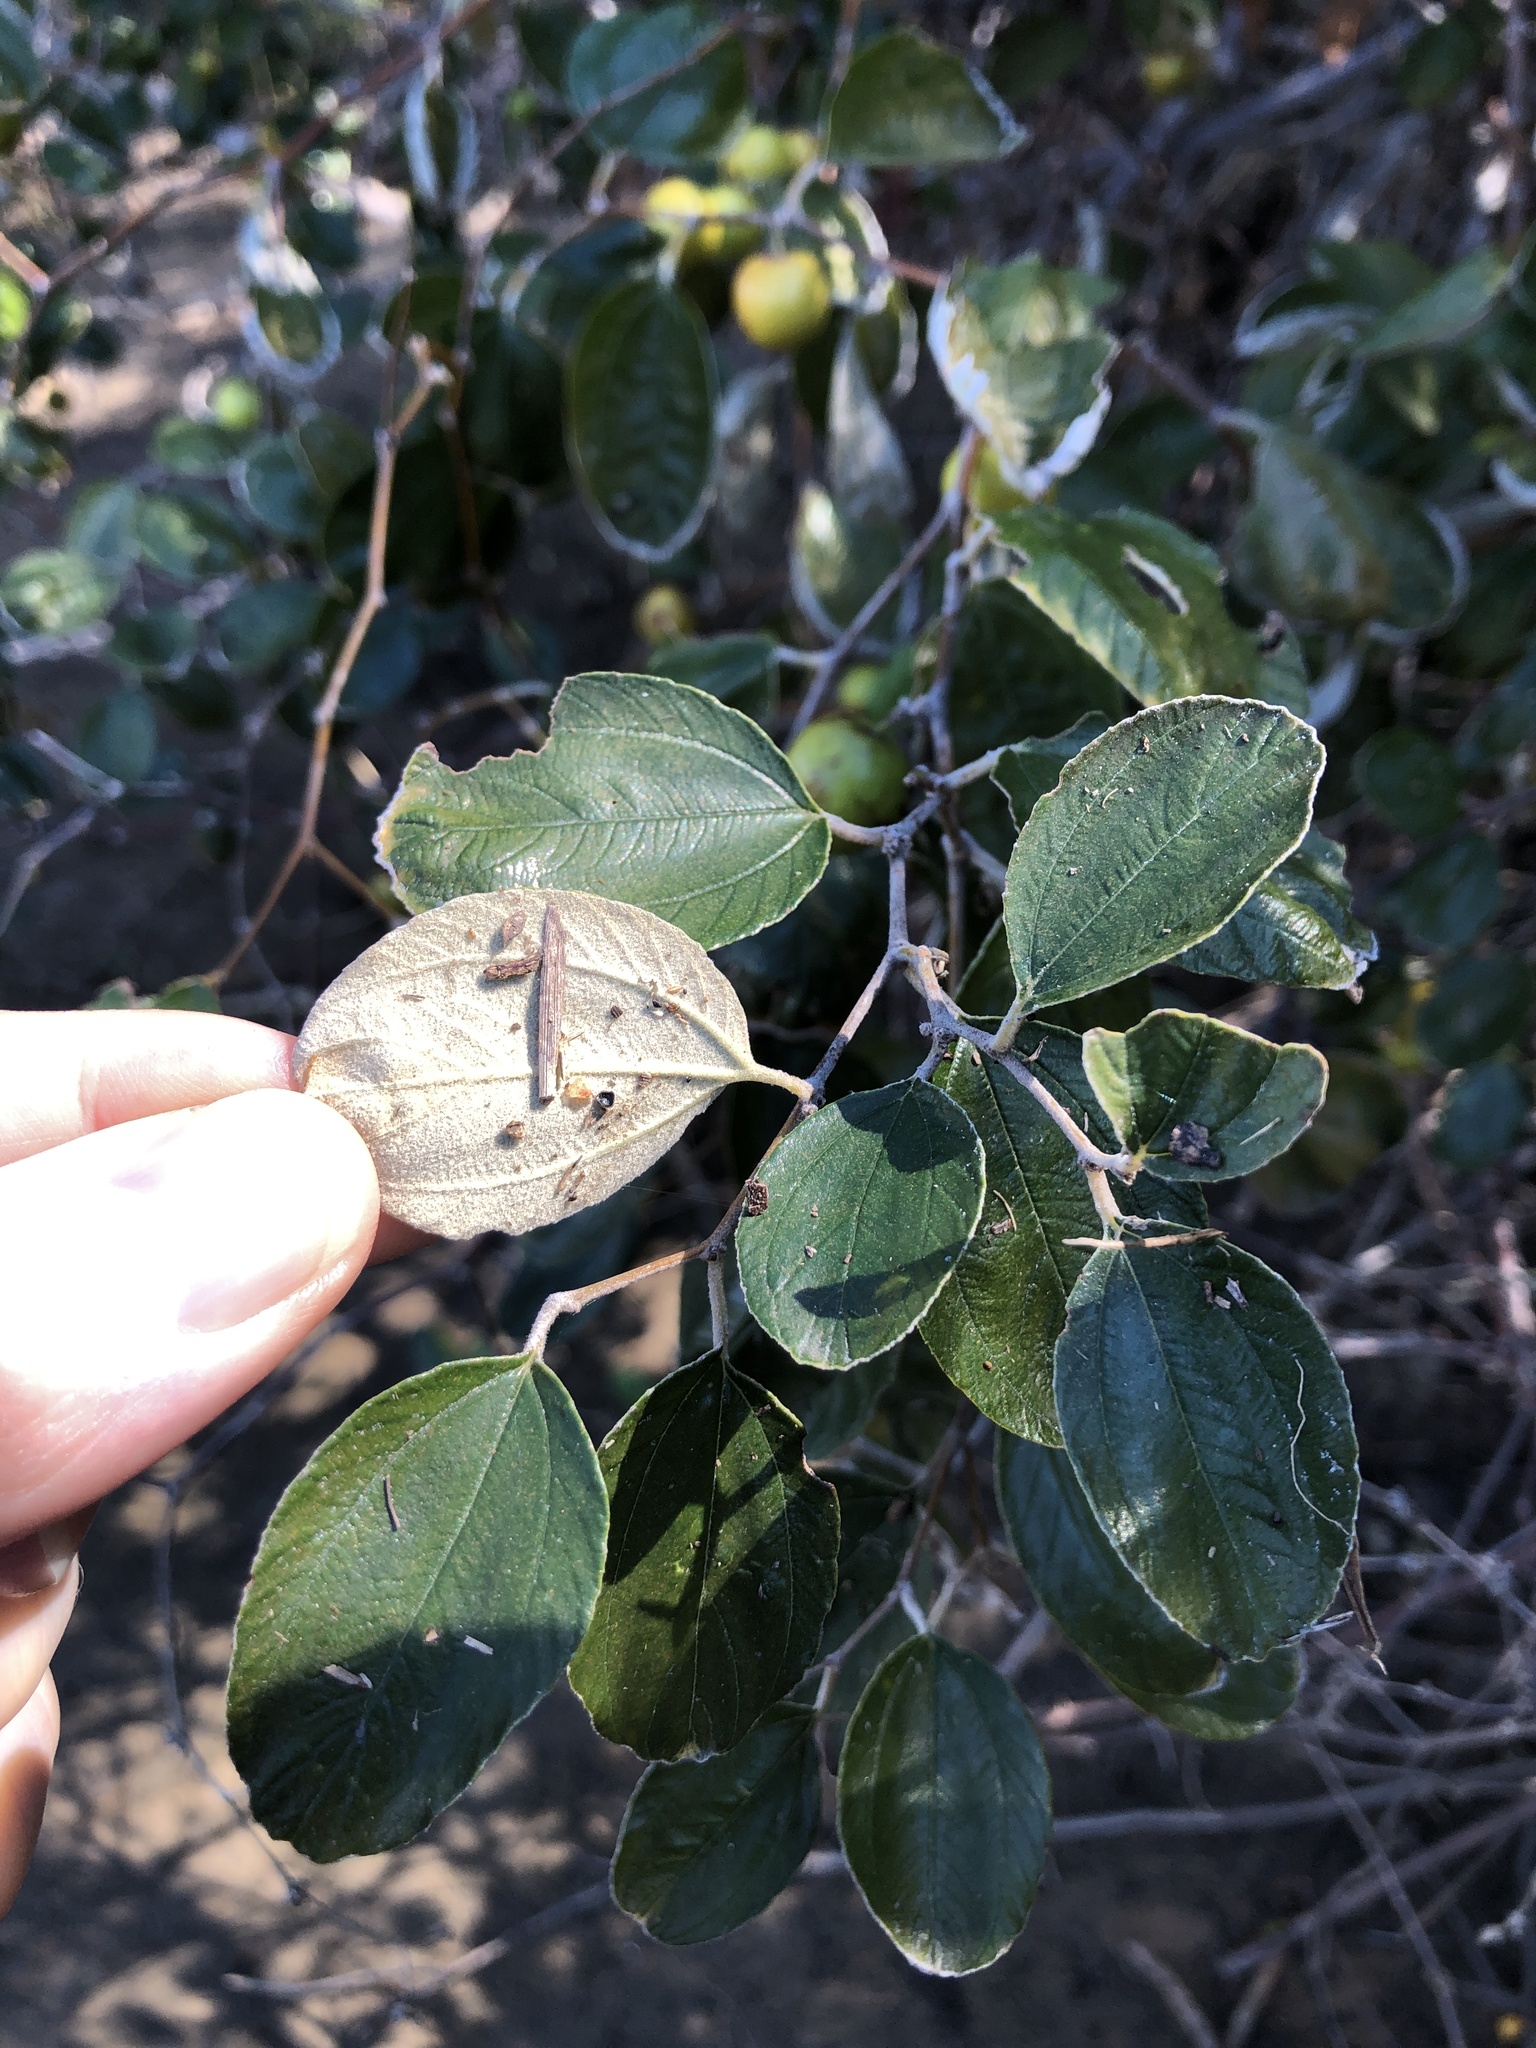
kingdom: Plantae
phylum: Tracheophyta
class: Magnoliopsida
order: Rosales
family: Rhamnaceae
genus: Ziziphus
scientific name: Ziziphus mauritiana
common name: Indian jujube
